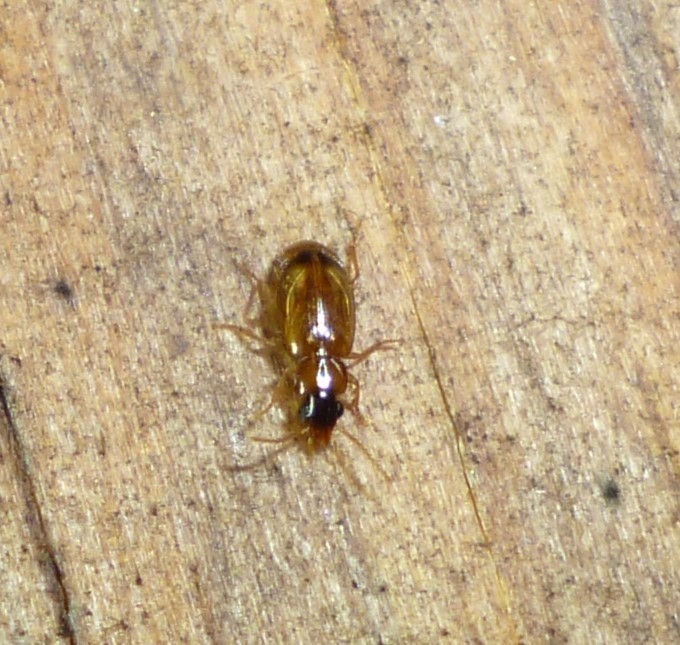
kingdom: Animalia
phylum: Arthropoda
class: Insecta
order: Coleoptera
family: Carabidae
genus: Perigona
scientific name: Perigona nigriceps
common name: Tawny harp ground beetle
